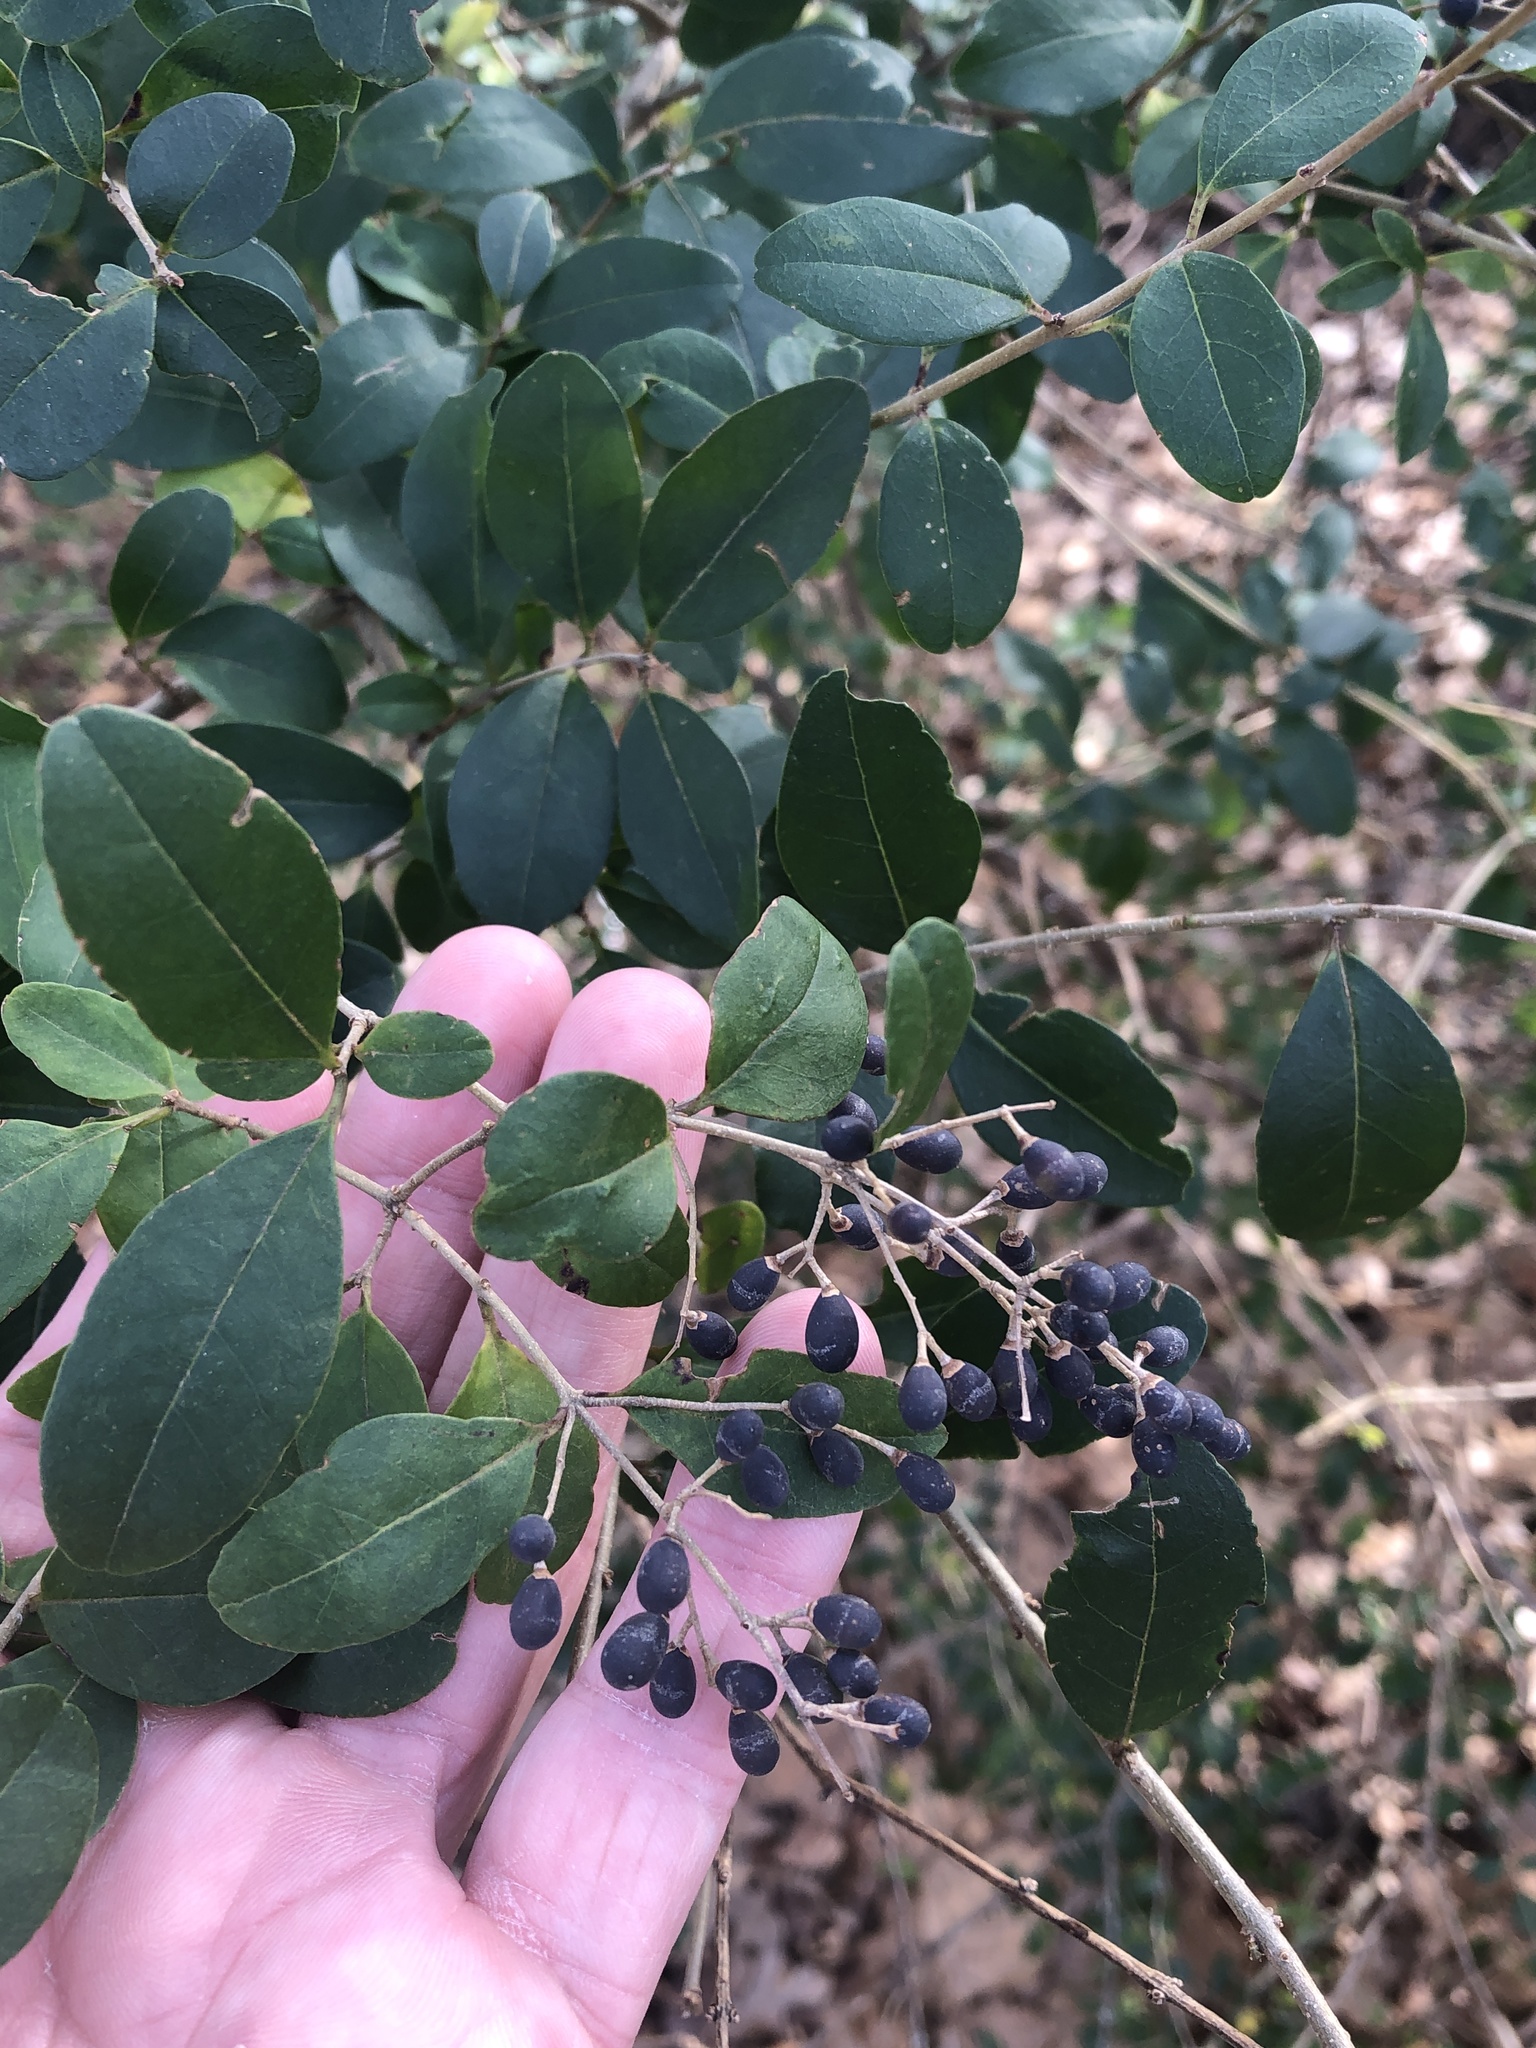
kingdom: Plantae
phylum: Tracheophyta
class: Magnoliopsida
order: Lamiales
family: Oleaceae
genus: Ligustrum
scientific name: Ligustrum sinense
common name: Chinese privet
